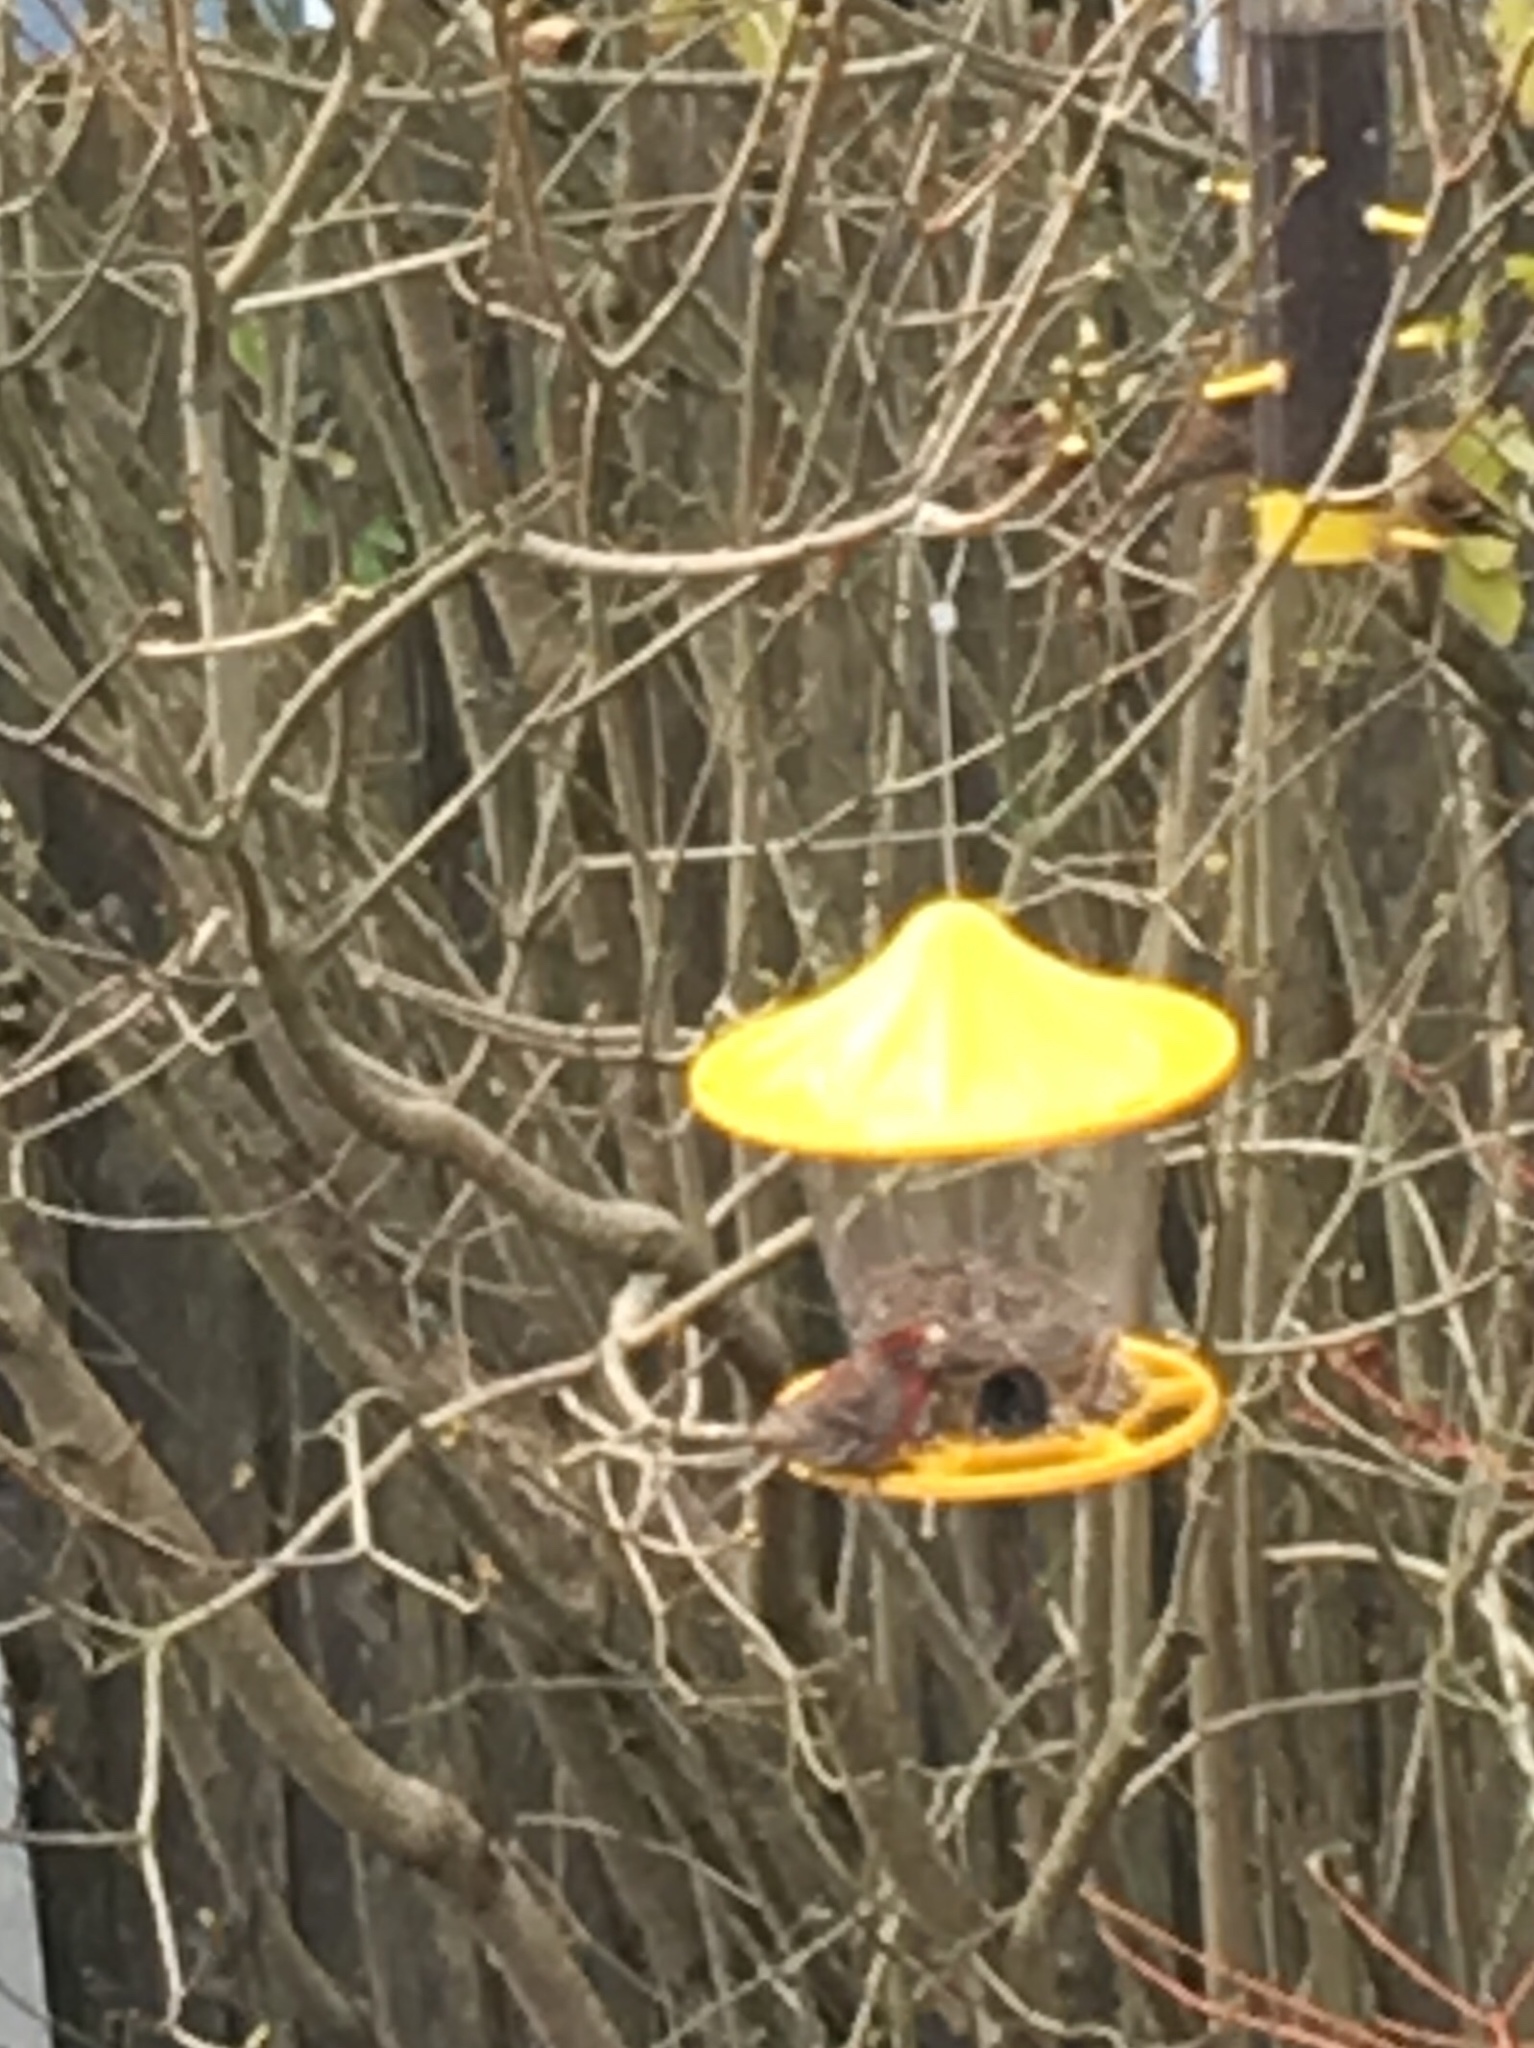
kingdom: Animalia
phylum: Chordata
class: Aves
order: Passeriformes
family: Fringillidae
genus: Haemorhous
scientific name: Haemorhous mexicanus
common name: House finch
